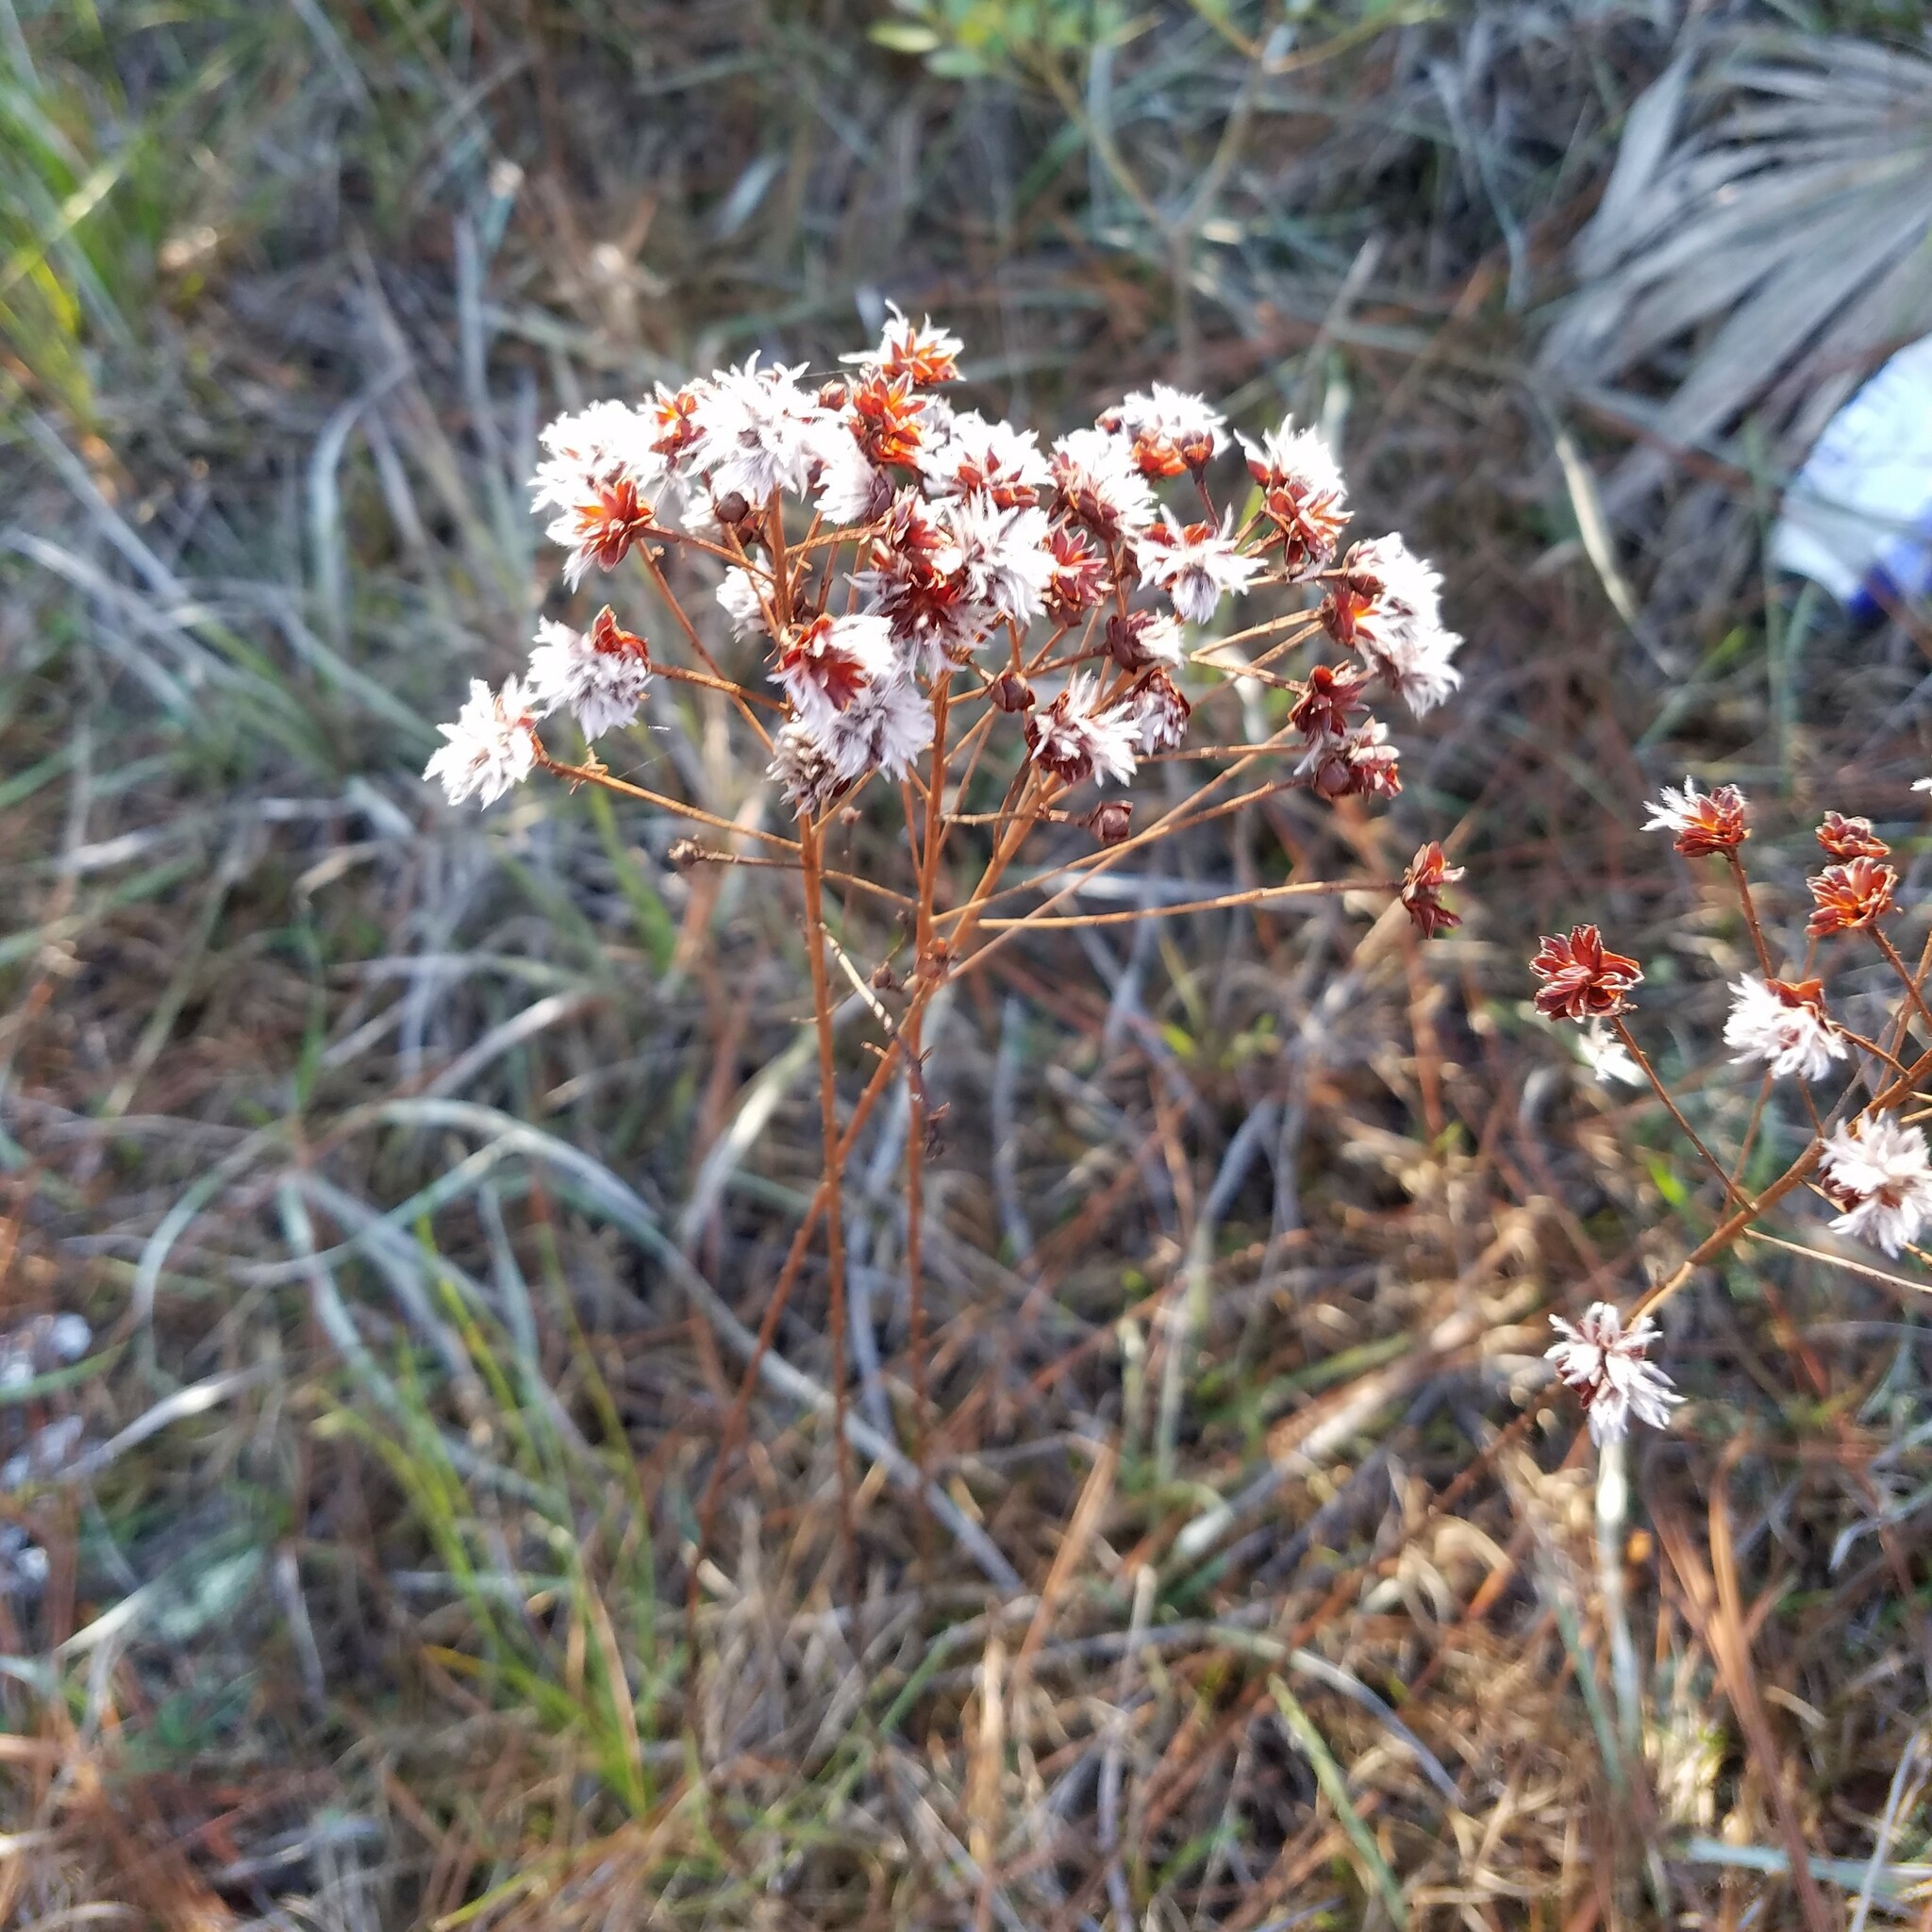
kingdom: Plantae
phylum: Tracheophyta
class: Magnoliopsida
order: Fabales
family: Fabaceae
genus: Dalea
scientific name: Dalea pinnata
